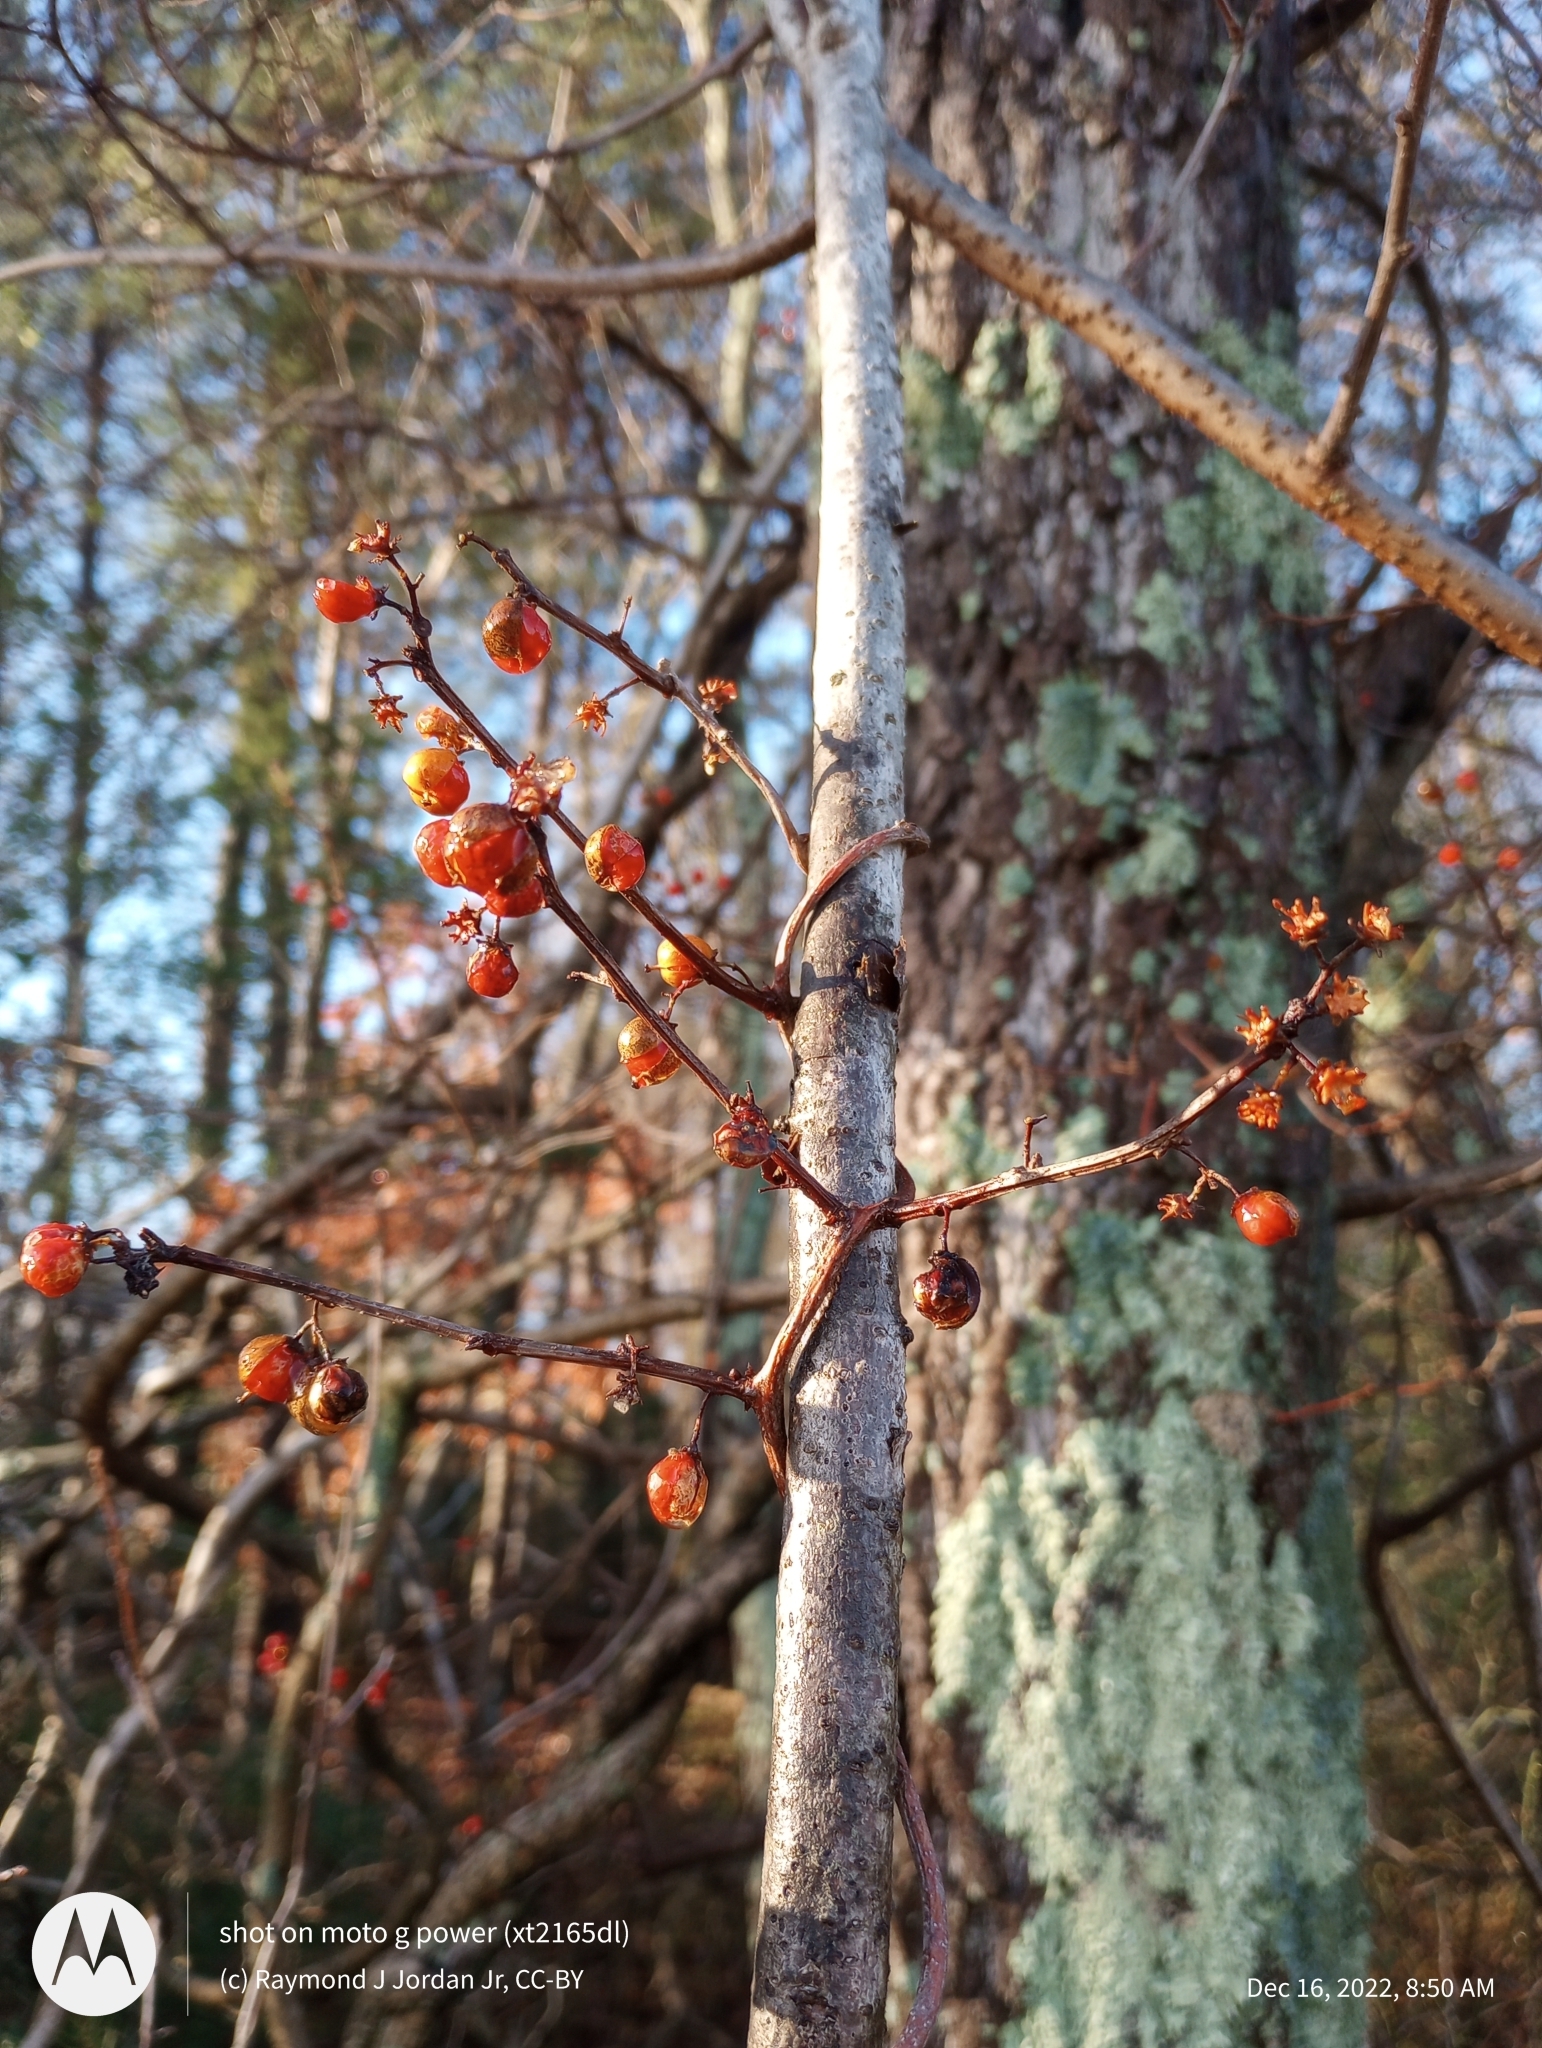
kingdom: Plantae
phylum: Tracheophyta
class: Magnoliopsida
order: Celastrales
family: Celastraceae
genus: Celastrus
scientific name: Celastrus orbiculatus
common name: Oriental bittersweet
